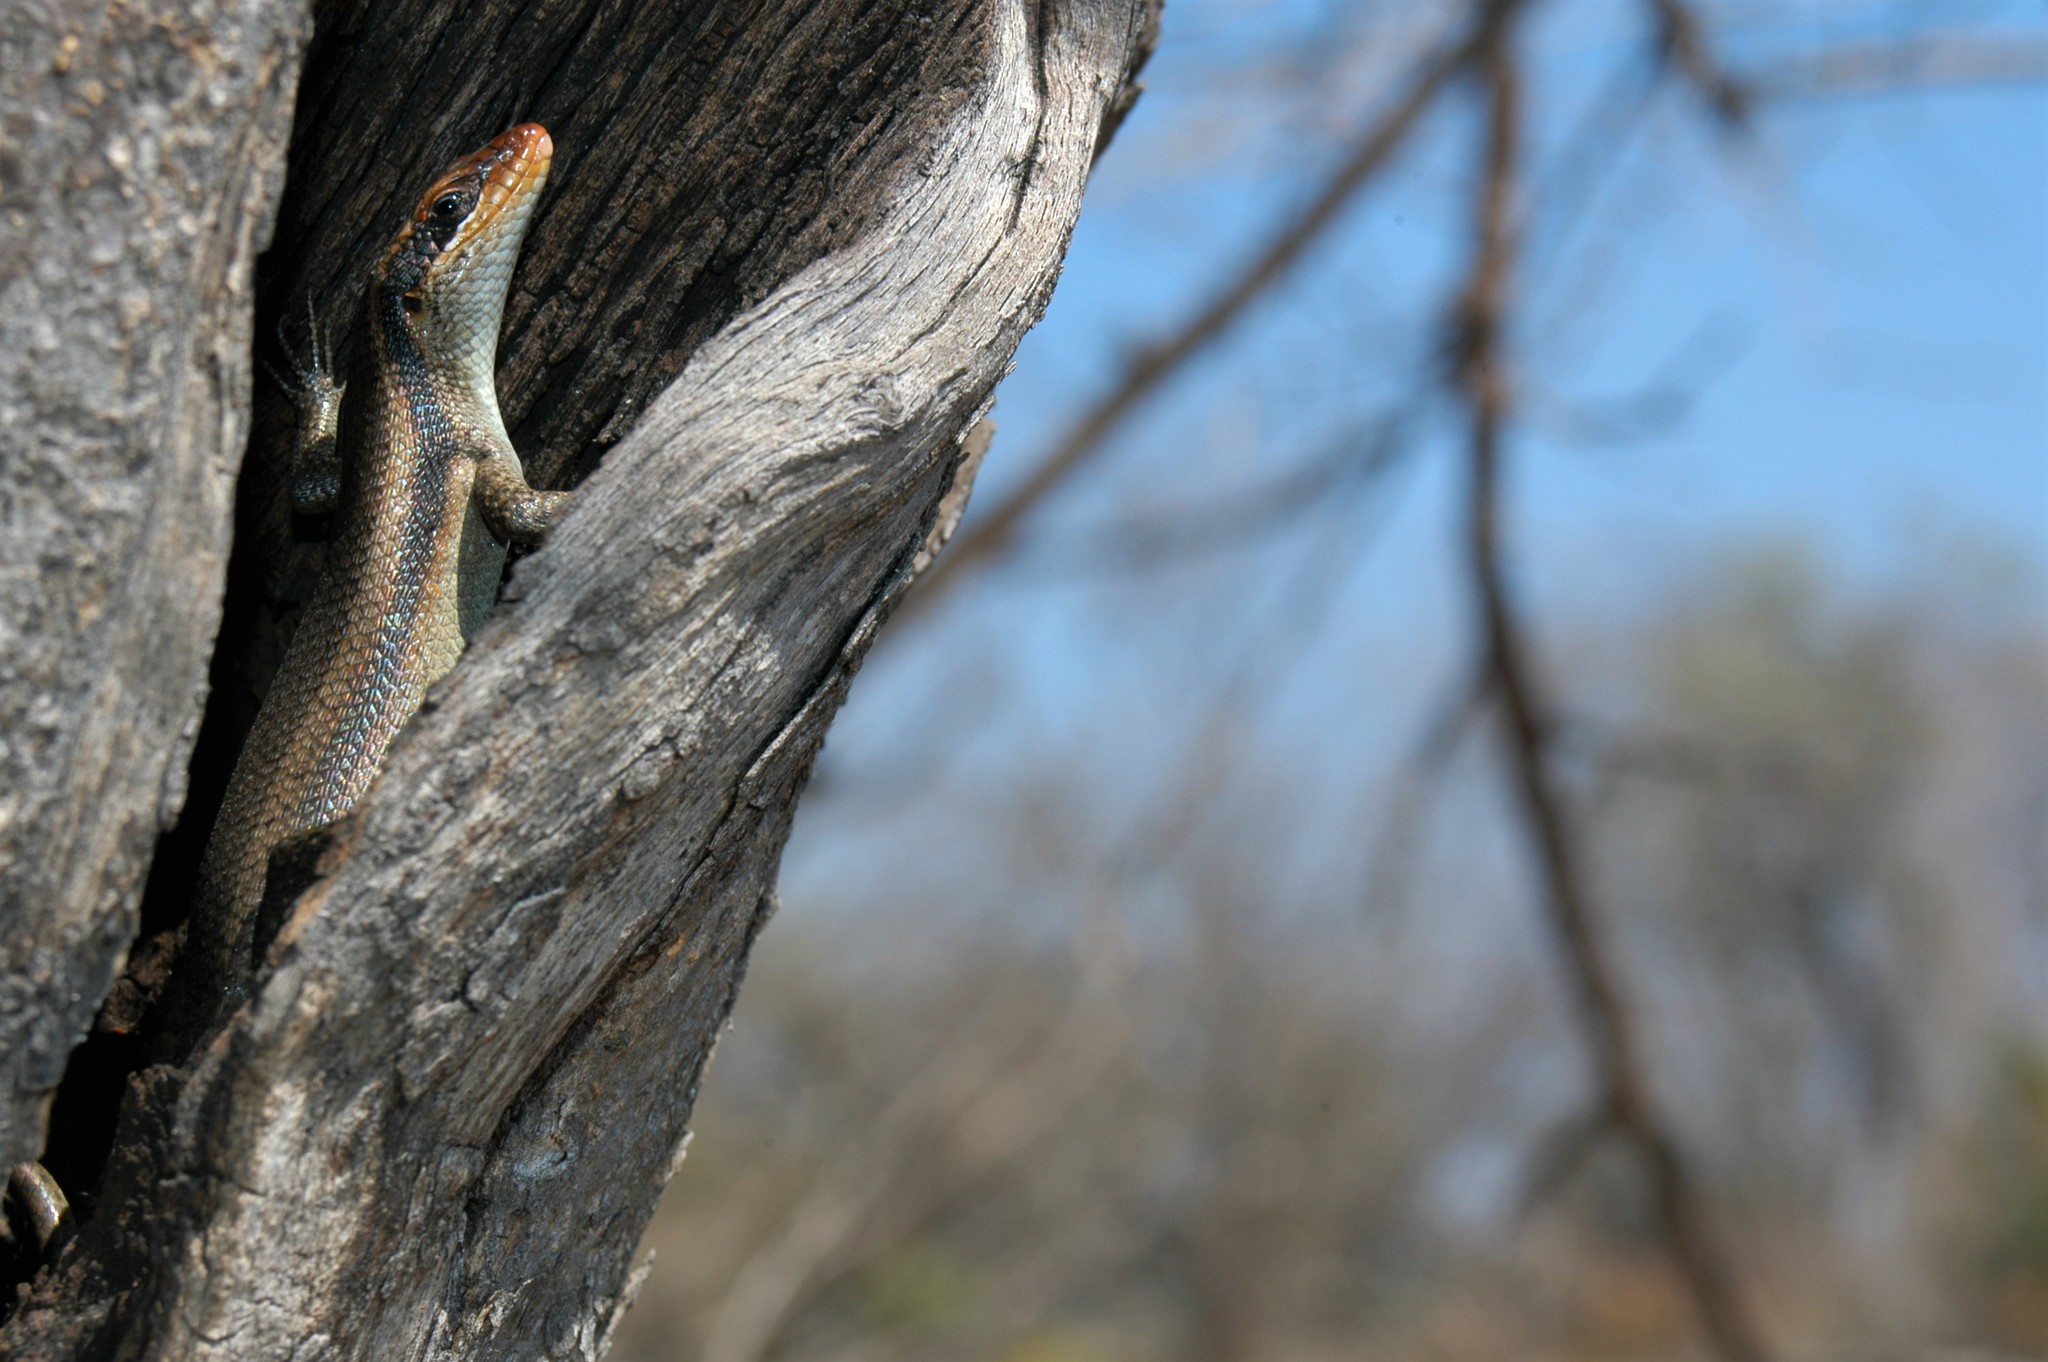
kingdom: Animalia
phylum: Chordata
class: Squamata
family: Scincidae
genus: Trachylepis
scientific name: Trachylepis wahlbergii
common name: Wahlberg’s striped skink
